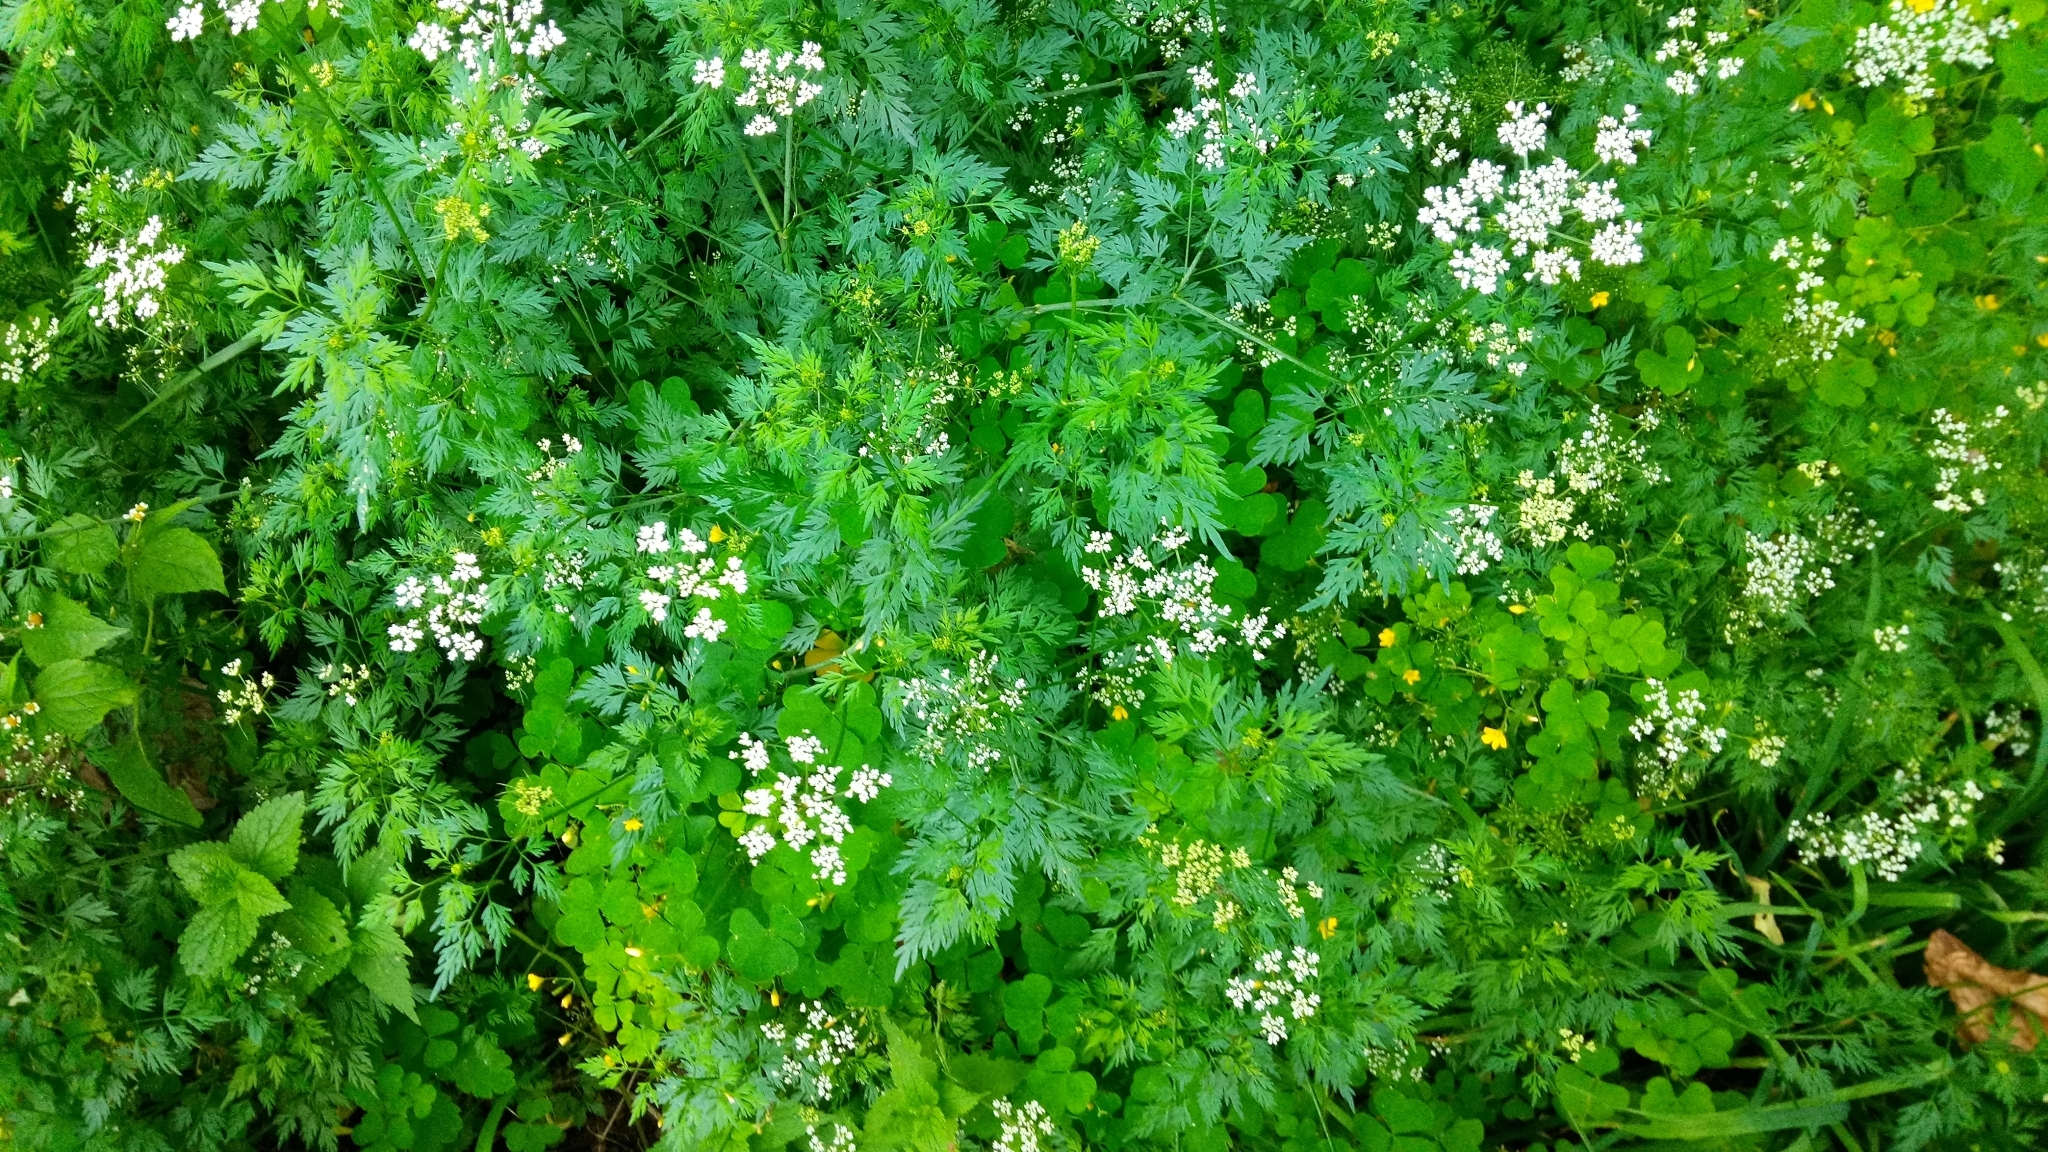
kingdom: Plantae
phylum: Tracheophyta
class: Magnoliopsida
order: Apiales
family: Apiaceae
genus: Aethusa
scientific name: Aethusa cynapium
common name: Fool's parsley
